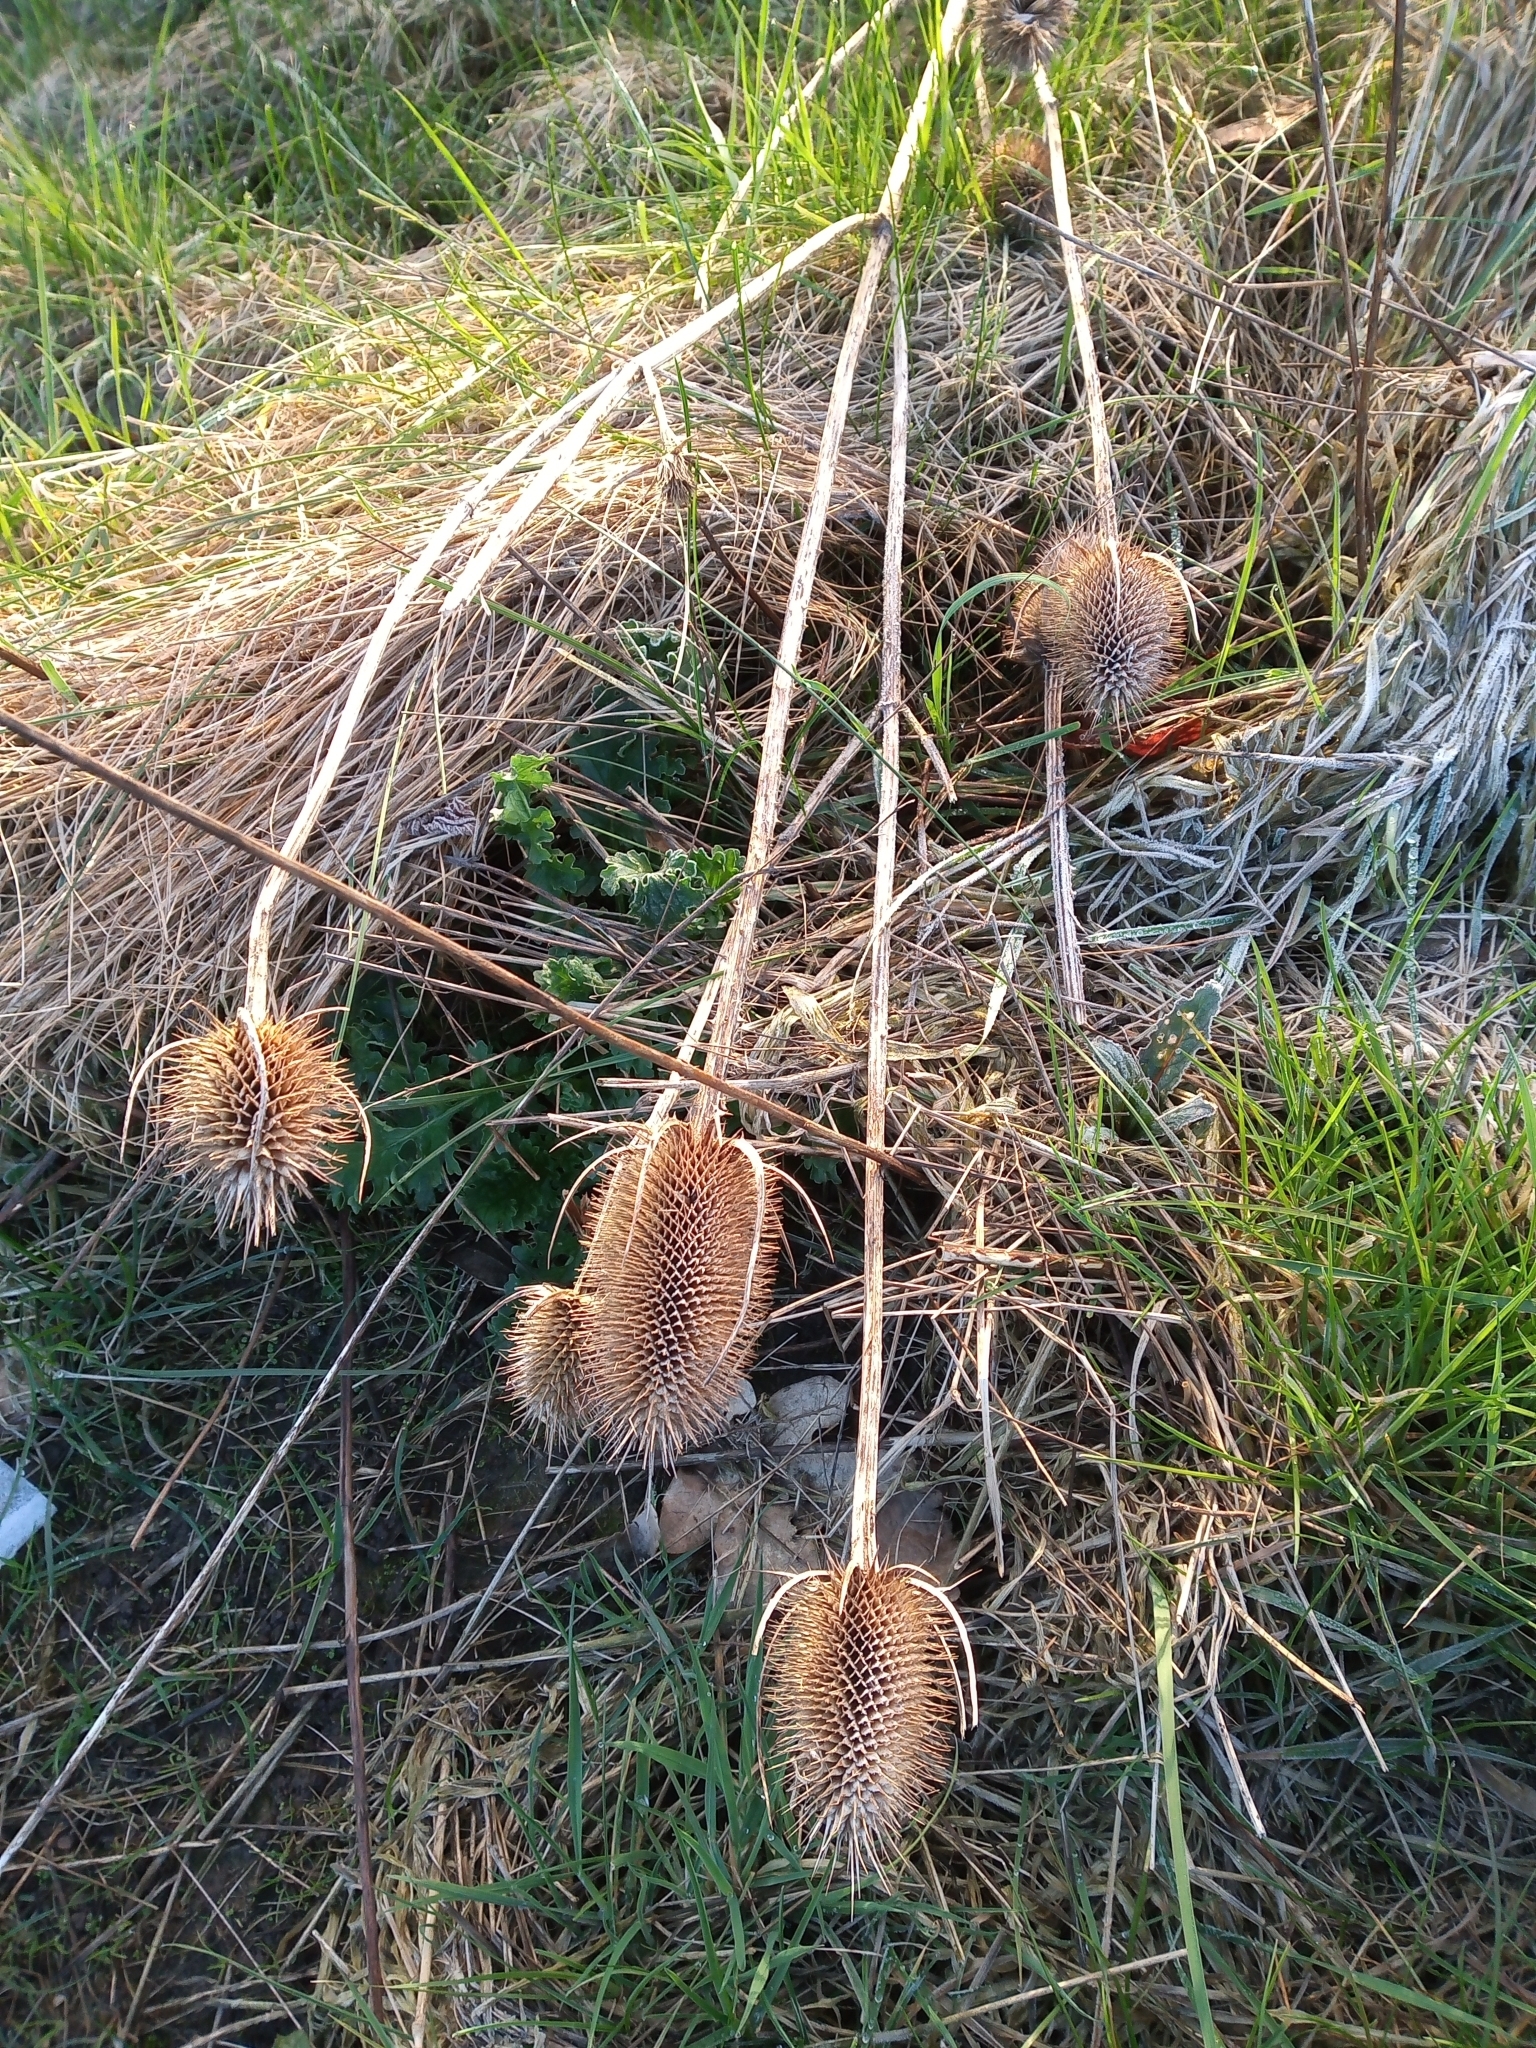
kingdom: Plantae
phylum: Tracheophyta
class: Magnoliopsida
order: Dipsacales
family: Caprifoliaceae
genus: Dipsacus
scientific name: Dipsacus fullonum
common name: Teasel
